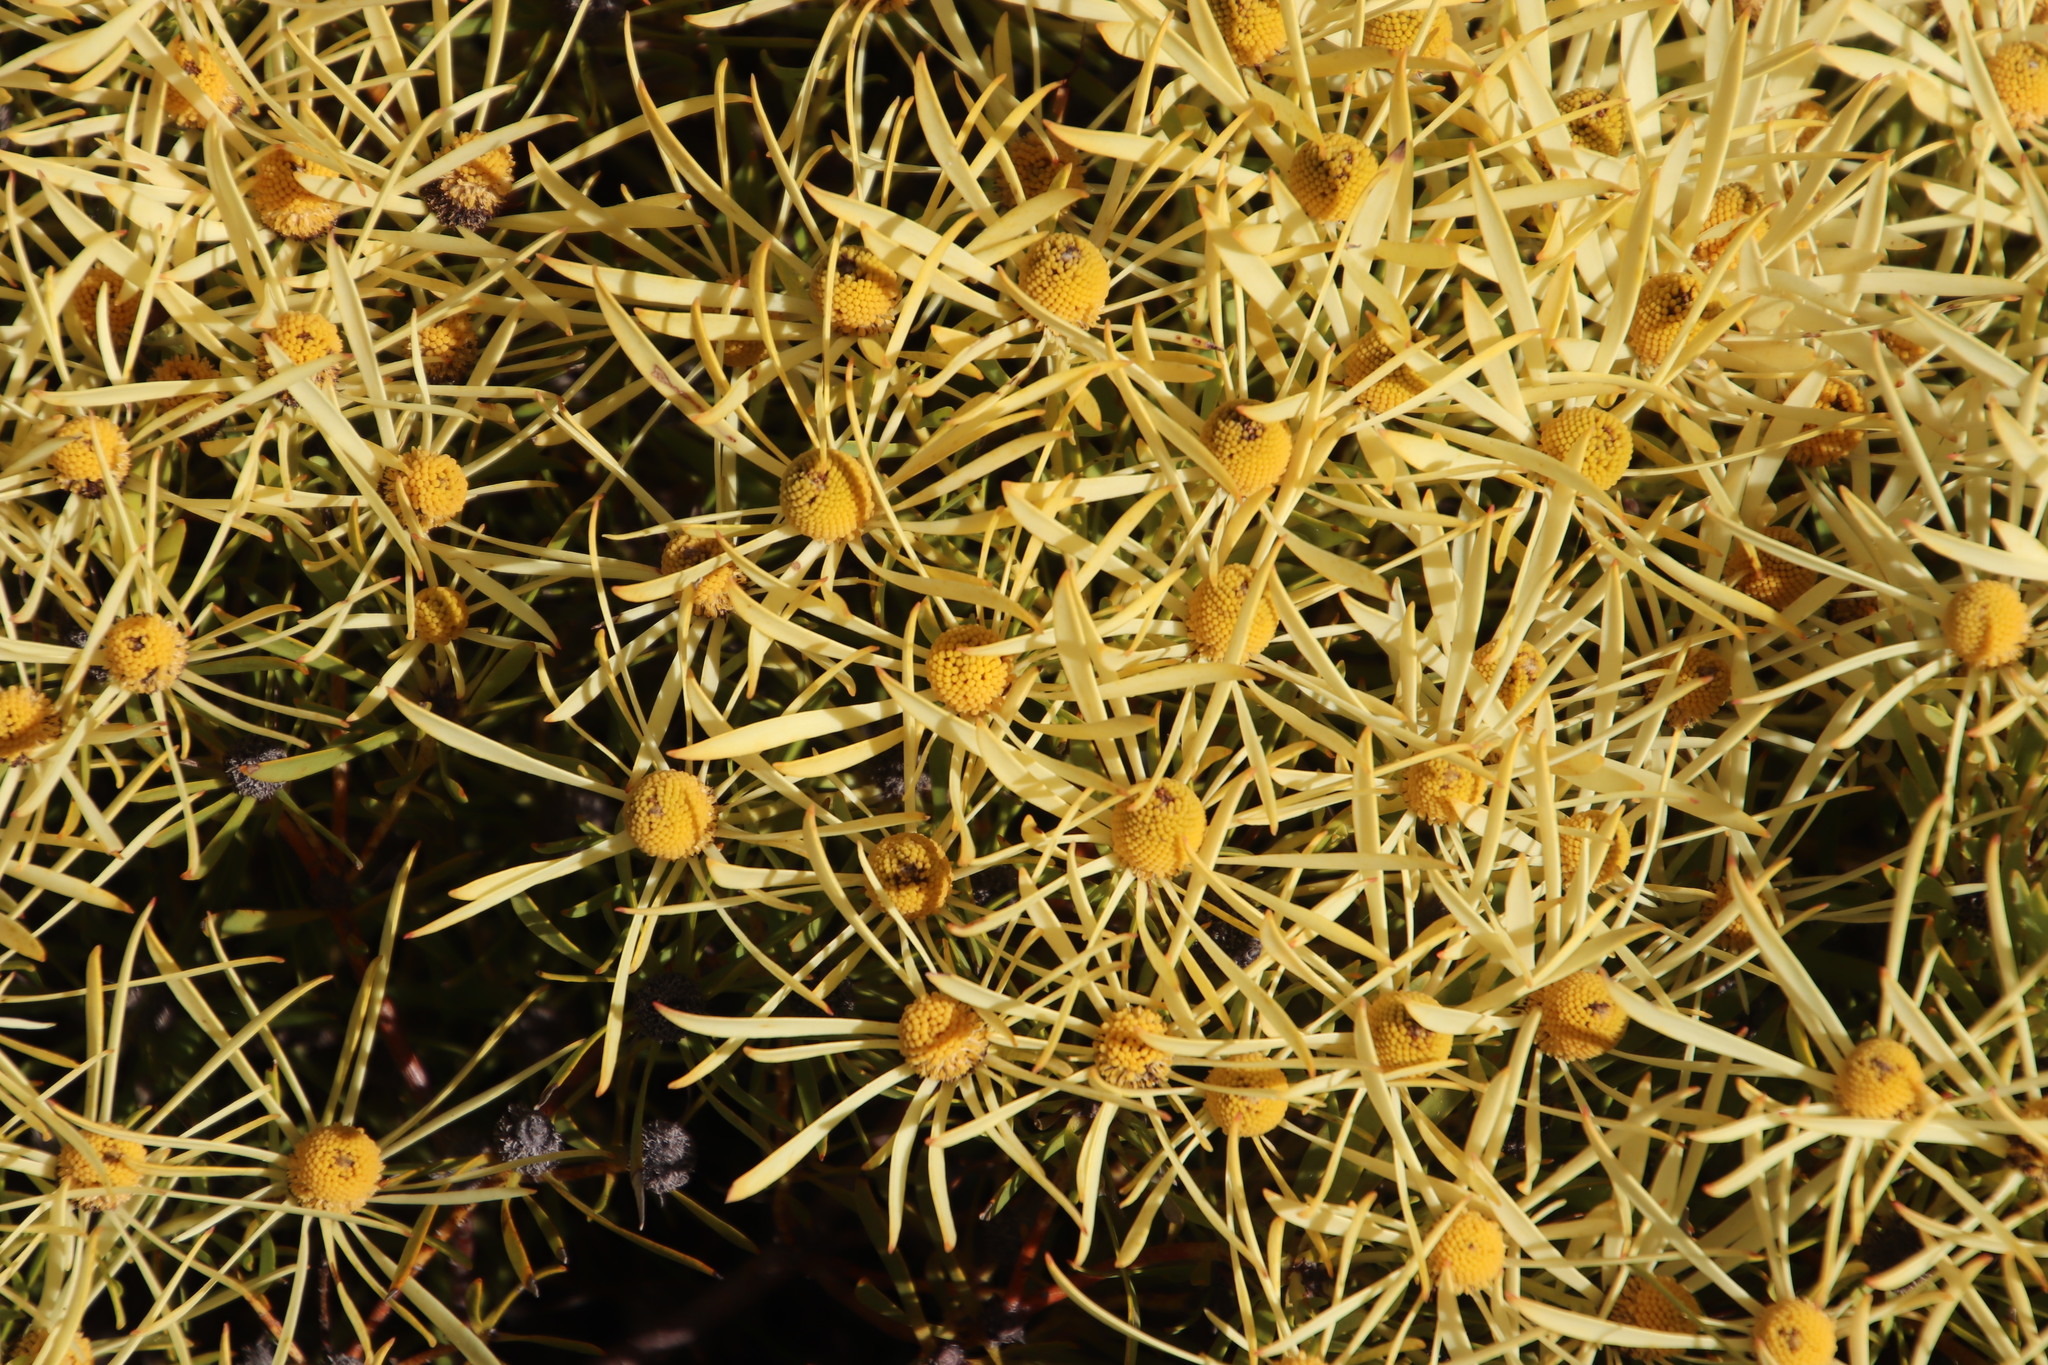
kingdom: Plantae
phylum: Tracheophyta
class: Magnoliopsida
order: Proteales
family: Proteaceae
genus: Leucadendron
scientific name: Leucadendron salignum
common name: Common sunshine conebush
